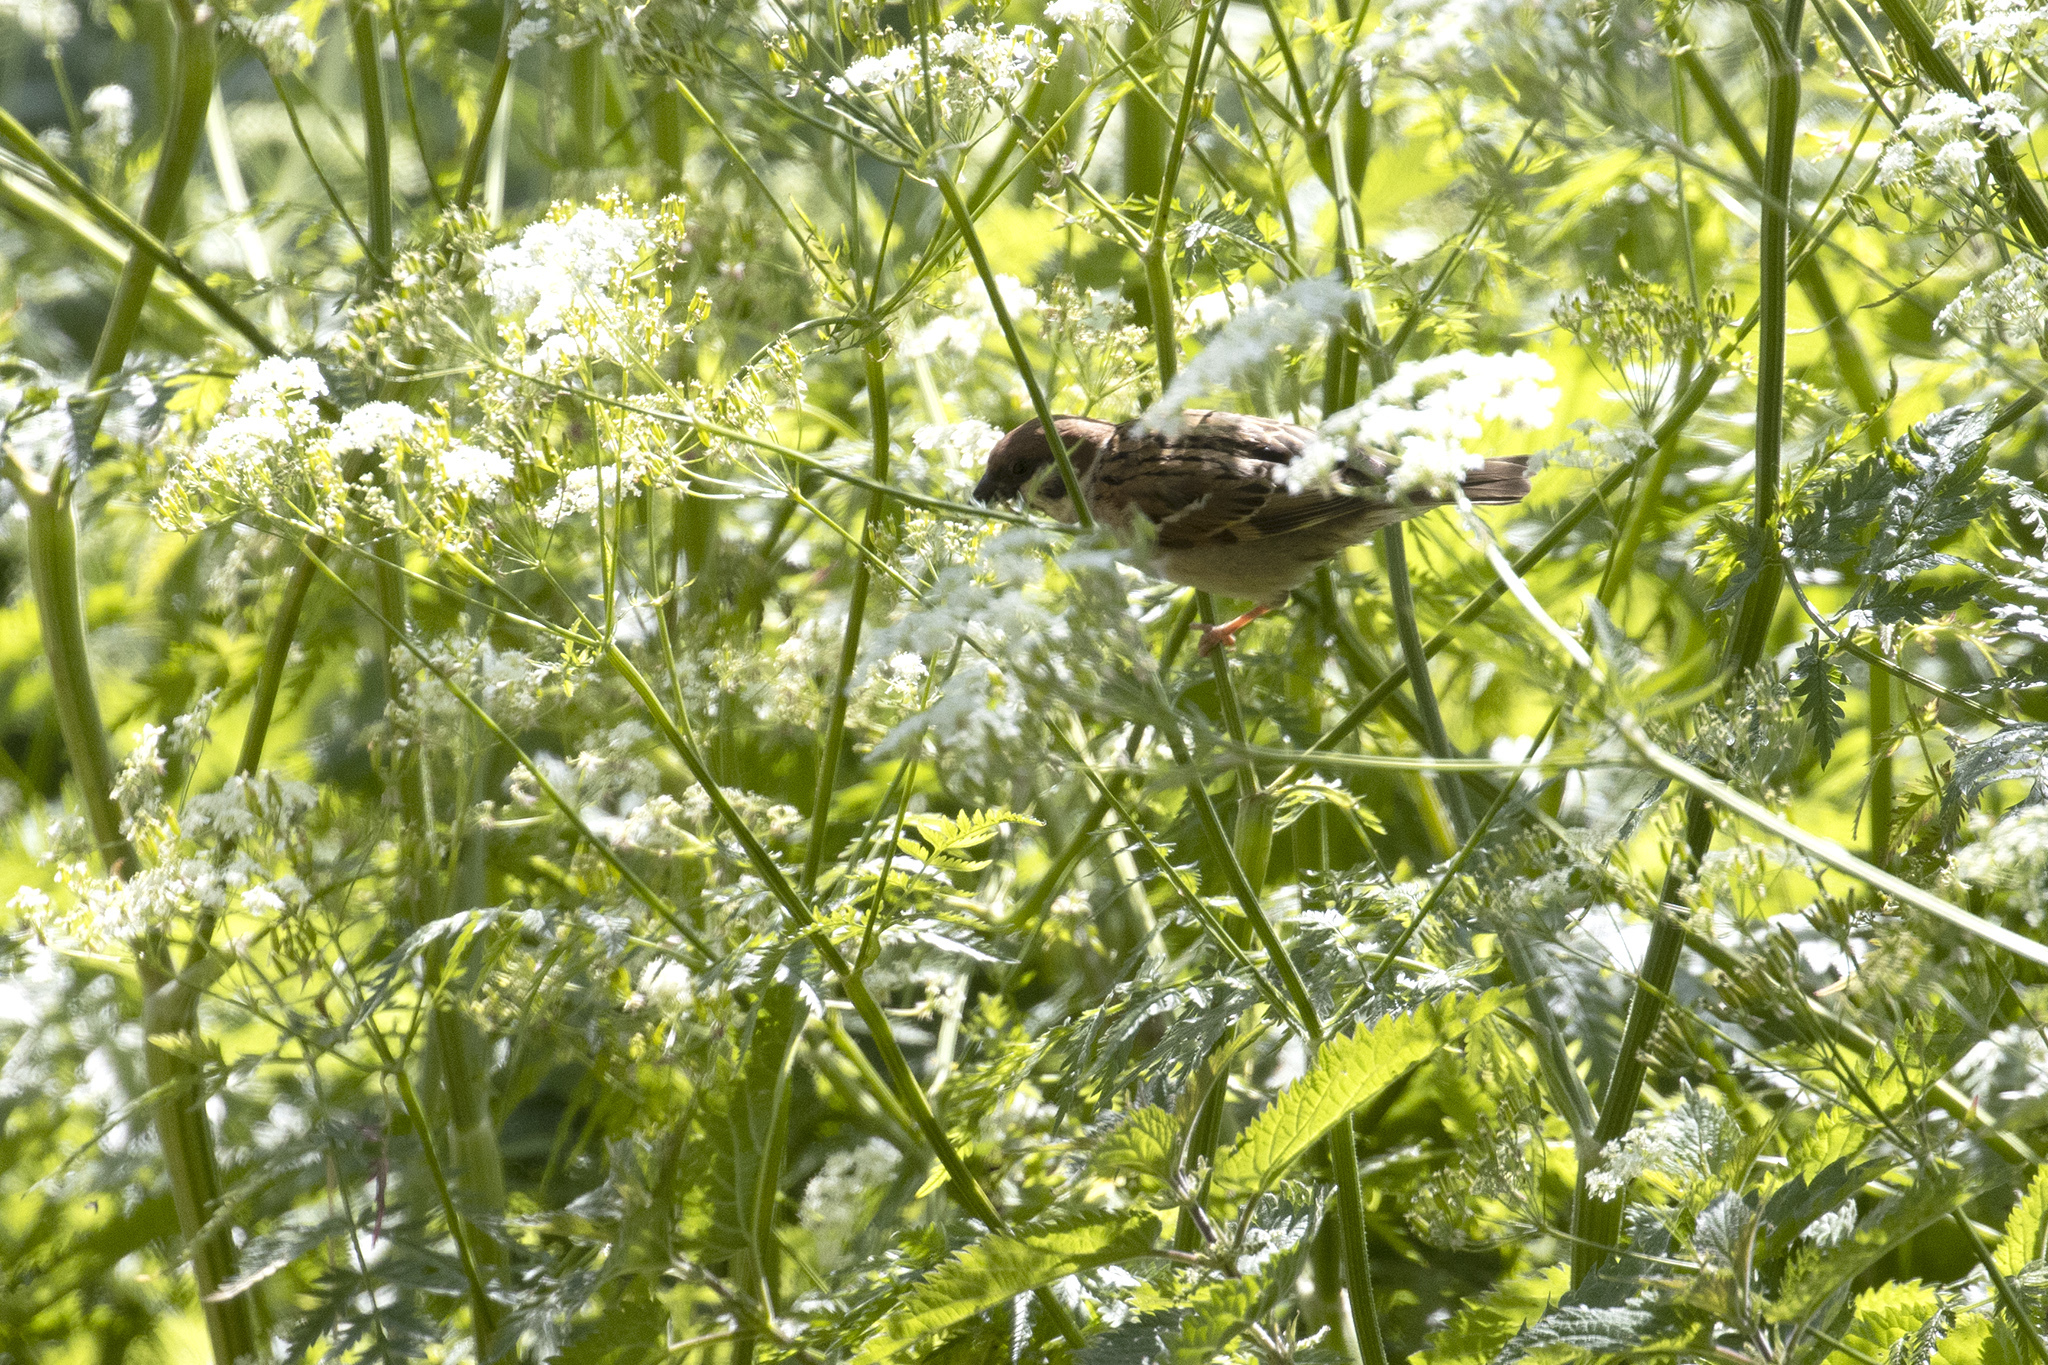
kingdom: Animalia
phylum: Chordata
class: Aves
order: Passeriformes
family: Passeridae
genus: Passer
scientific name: Passer montanus
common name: Eurasian tree sparrow
